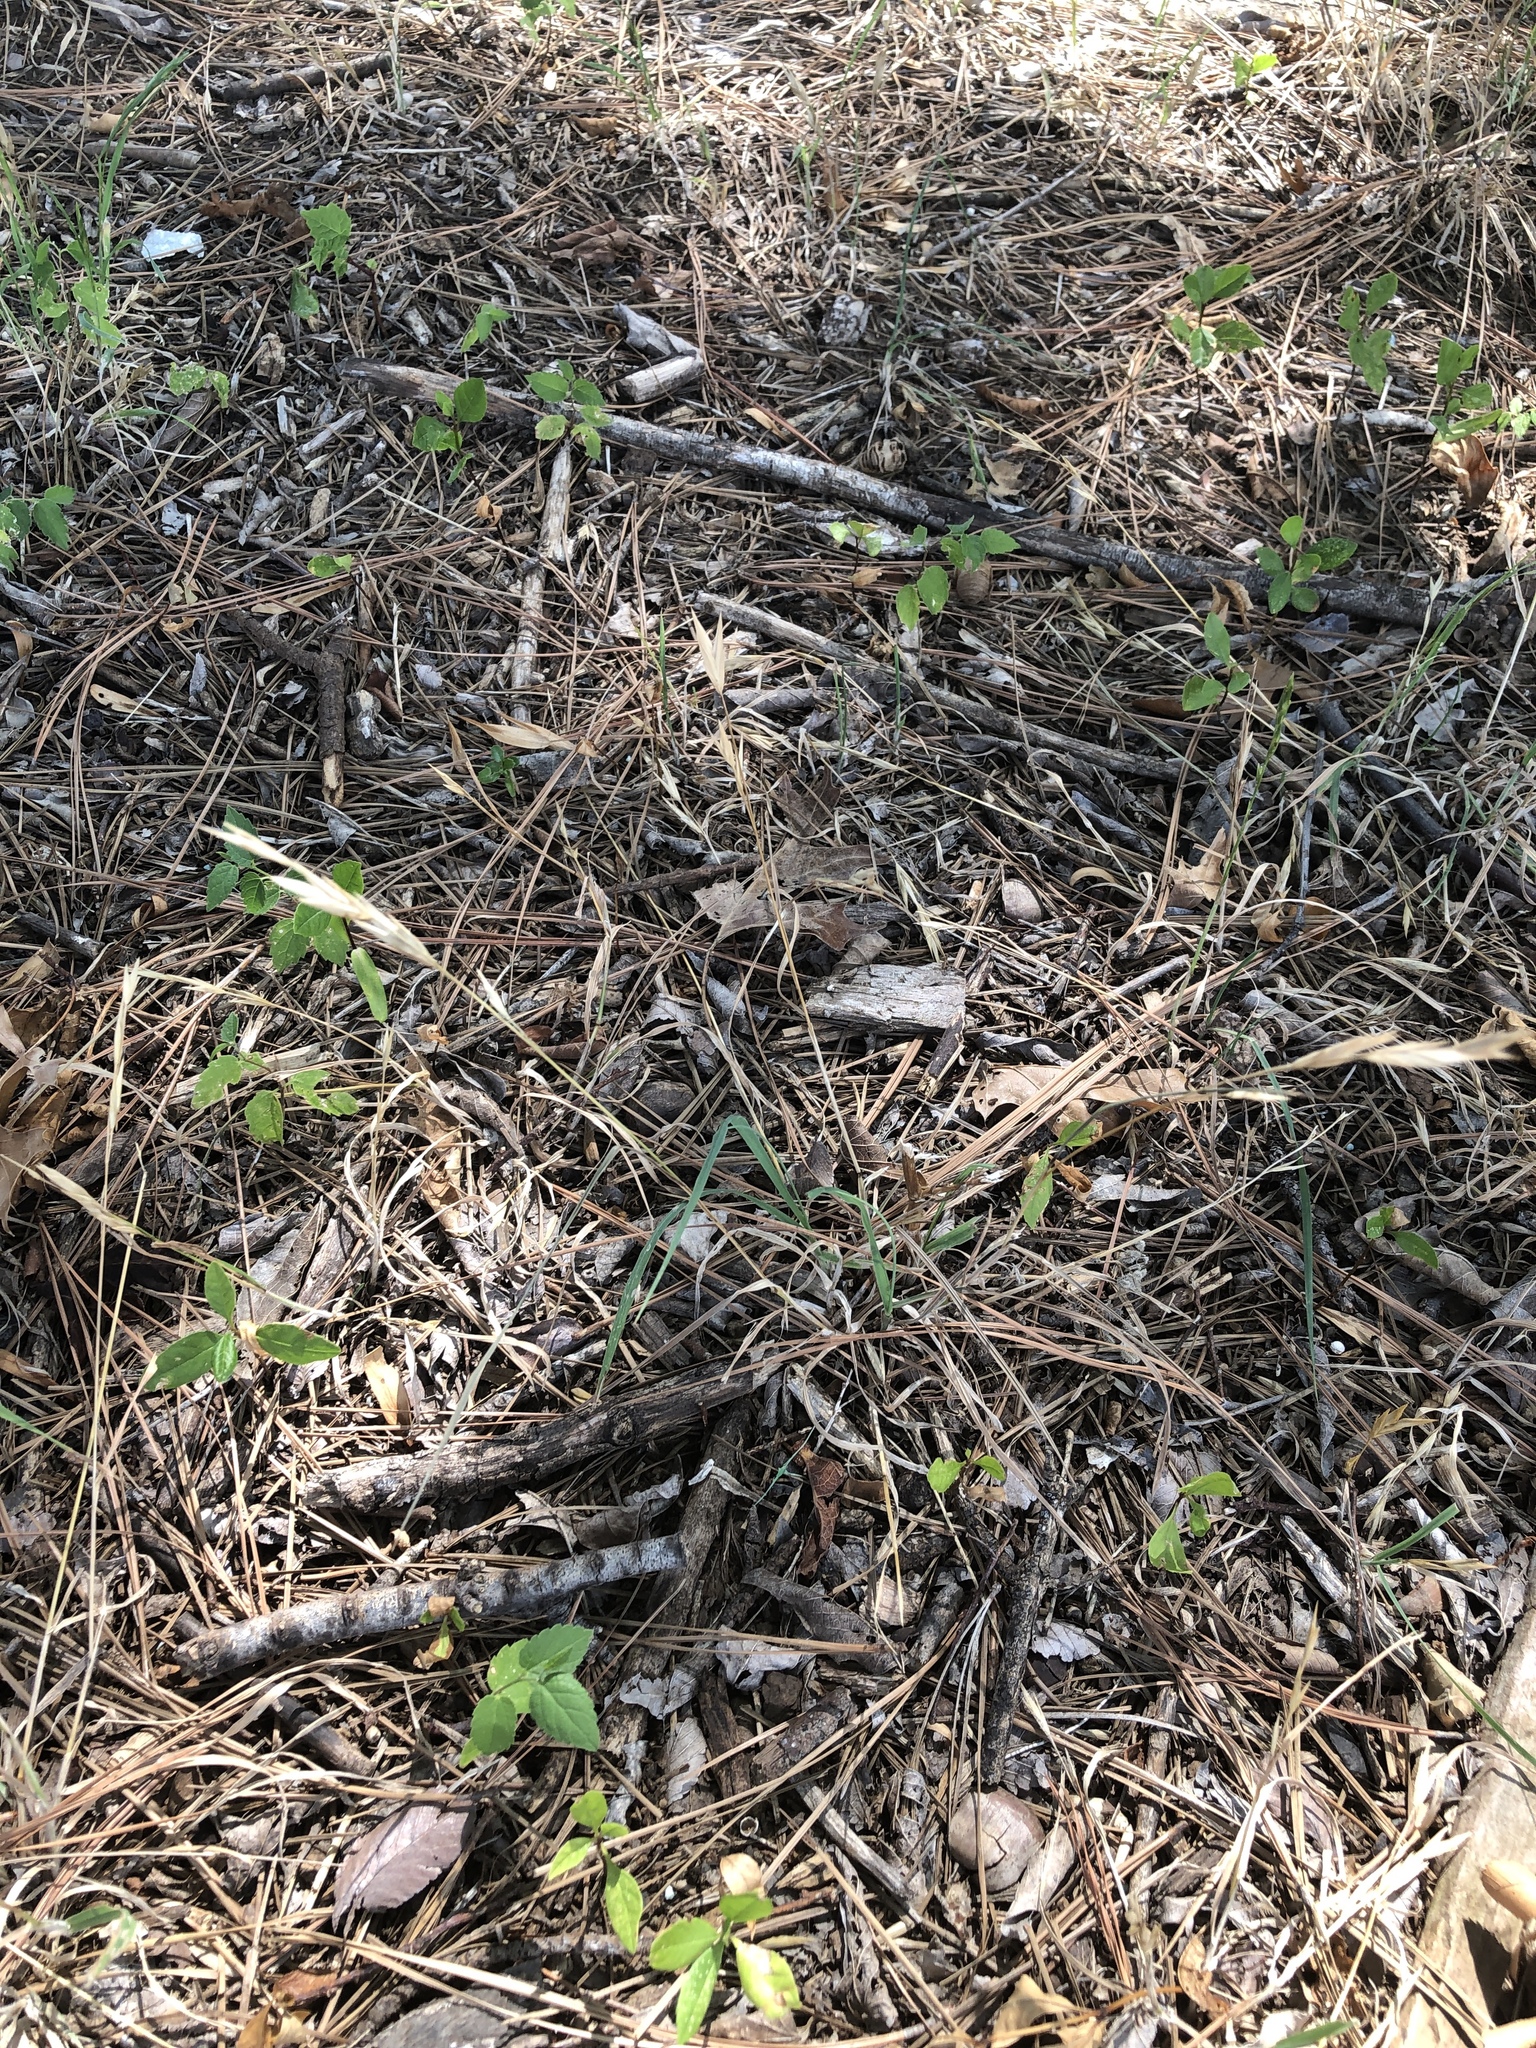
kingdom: Plantae
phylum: Tracheophyta
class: Liliopsida
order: Poales
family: Poaceae
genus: Bromus
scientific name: Bromus catharticus
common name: Rescuegrass
